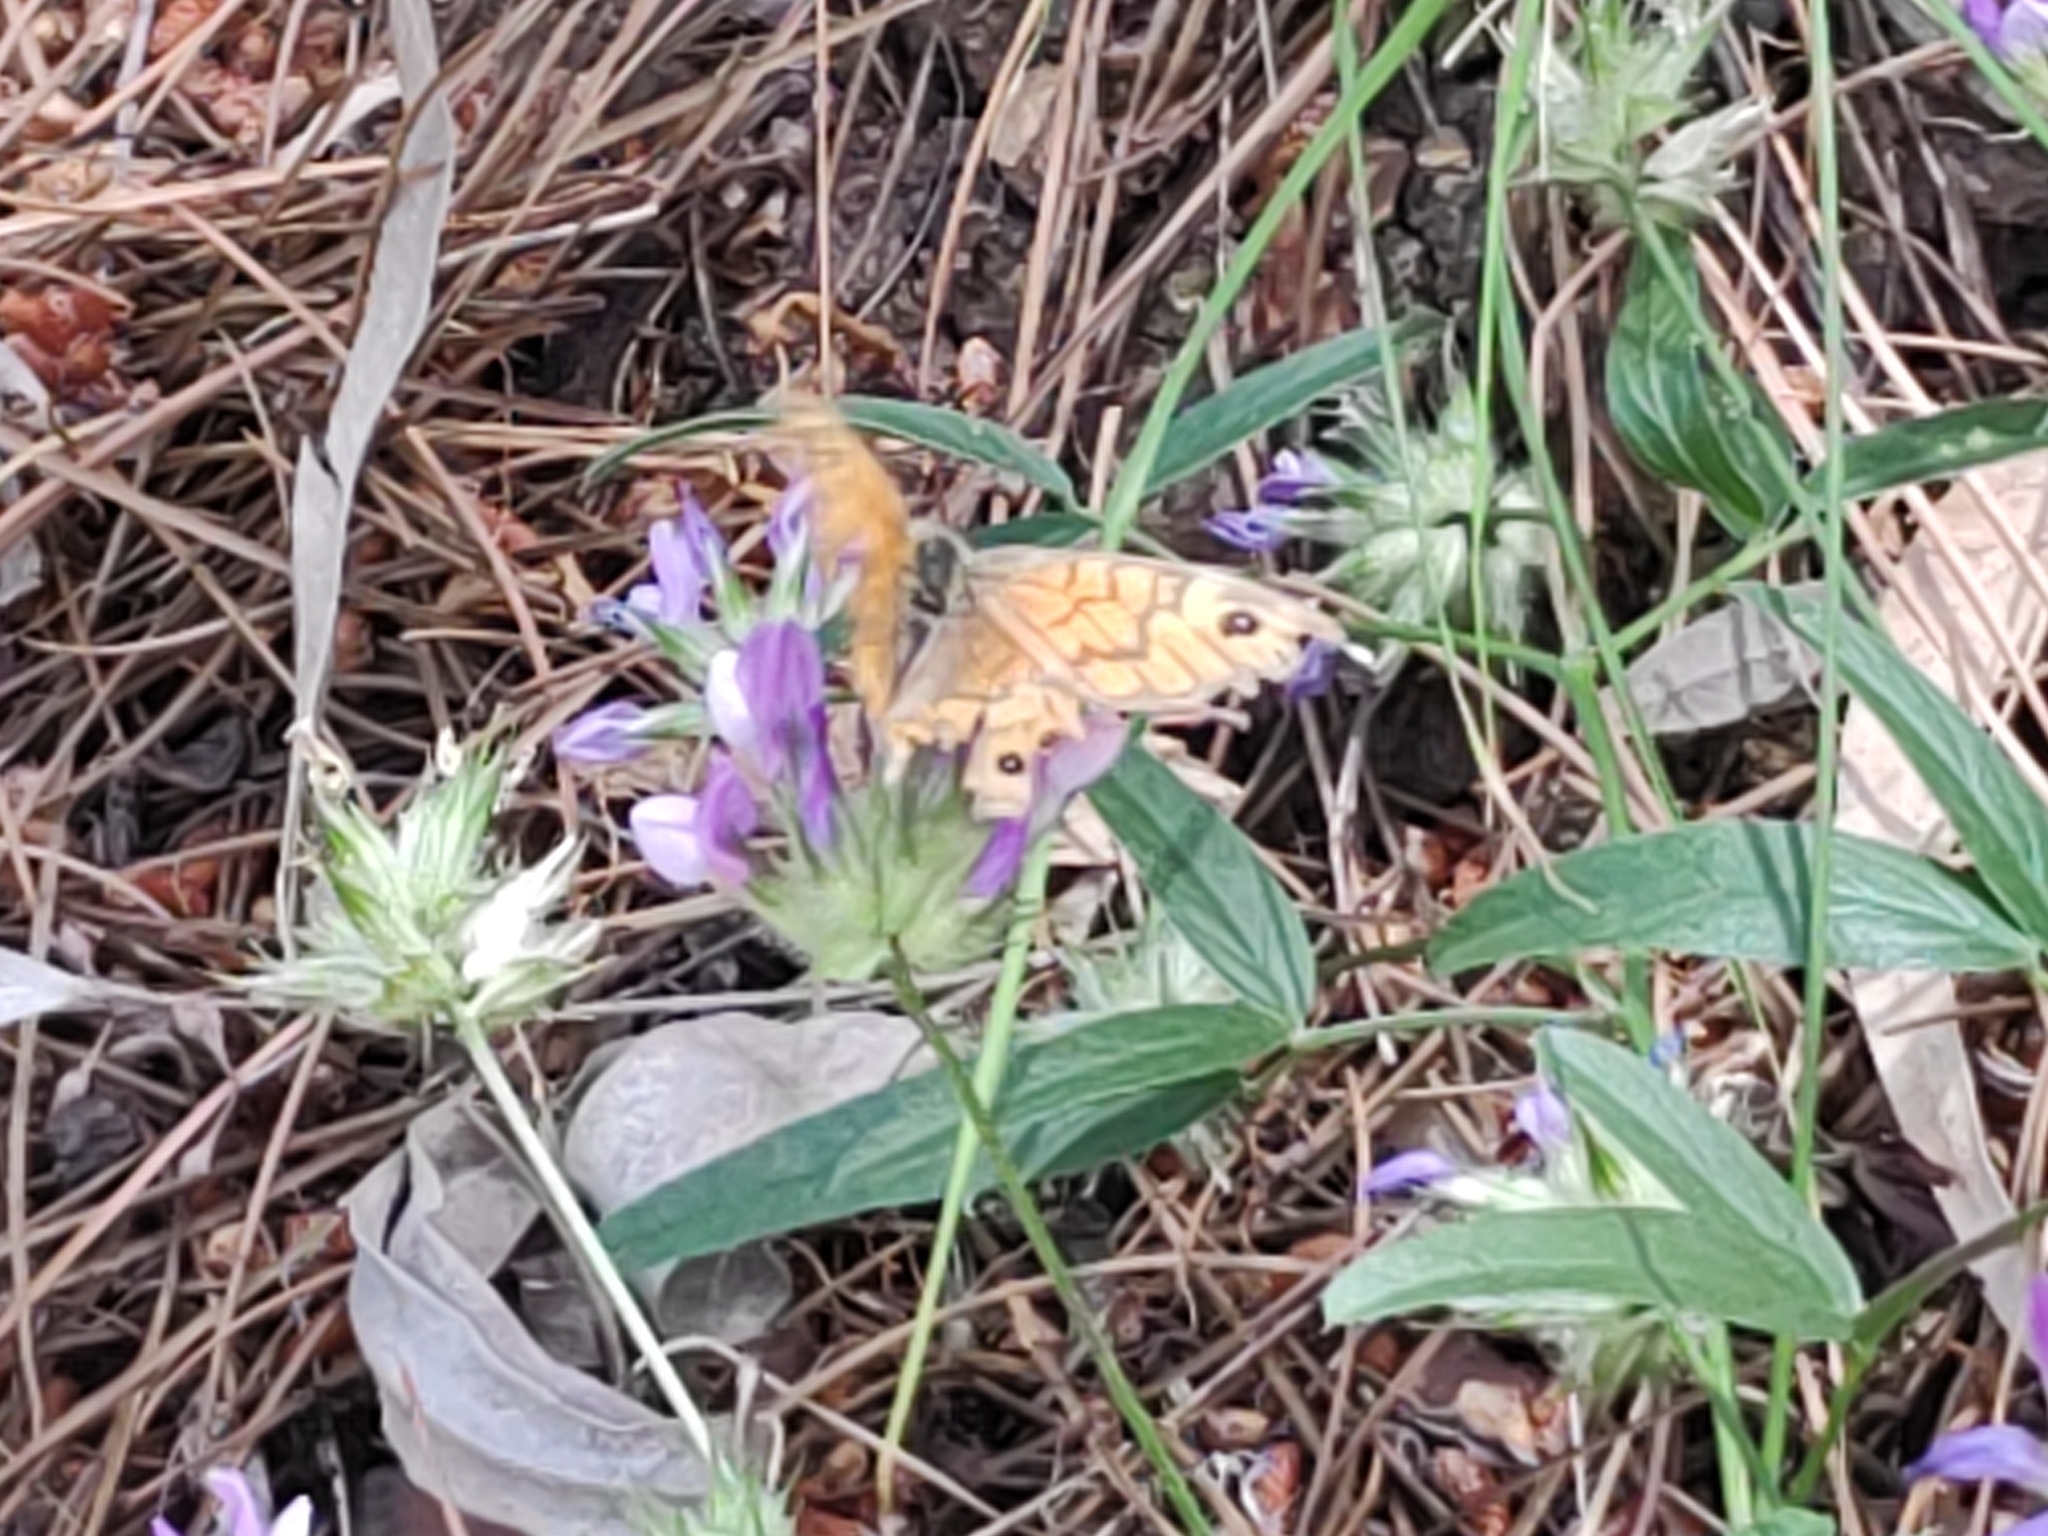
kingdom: Animalia
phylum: Arthropoda
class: Insecta
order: Lepidoptera
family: Nymphalidae
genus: Pararge
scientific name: Pararge Lasiommata megera
